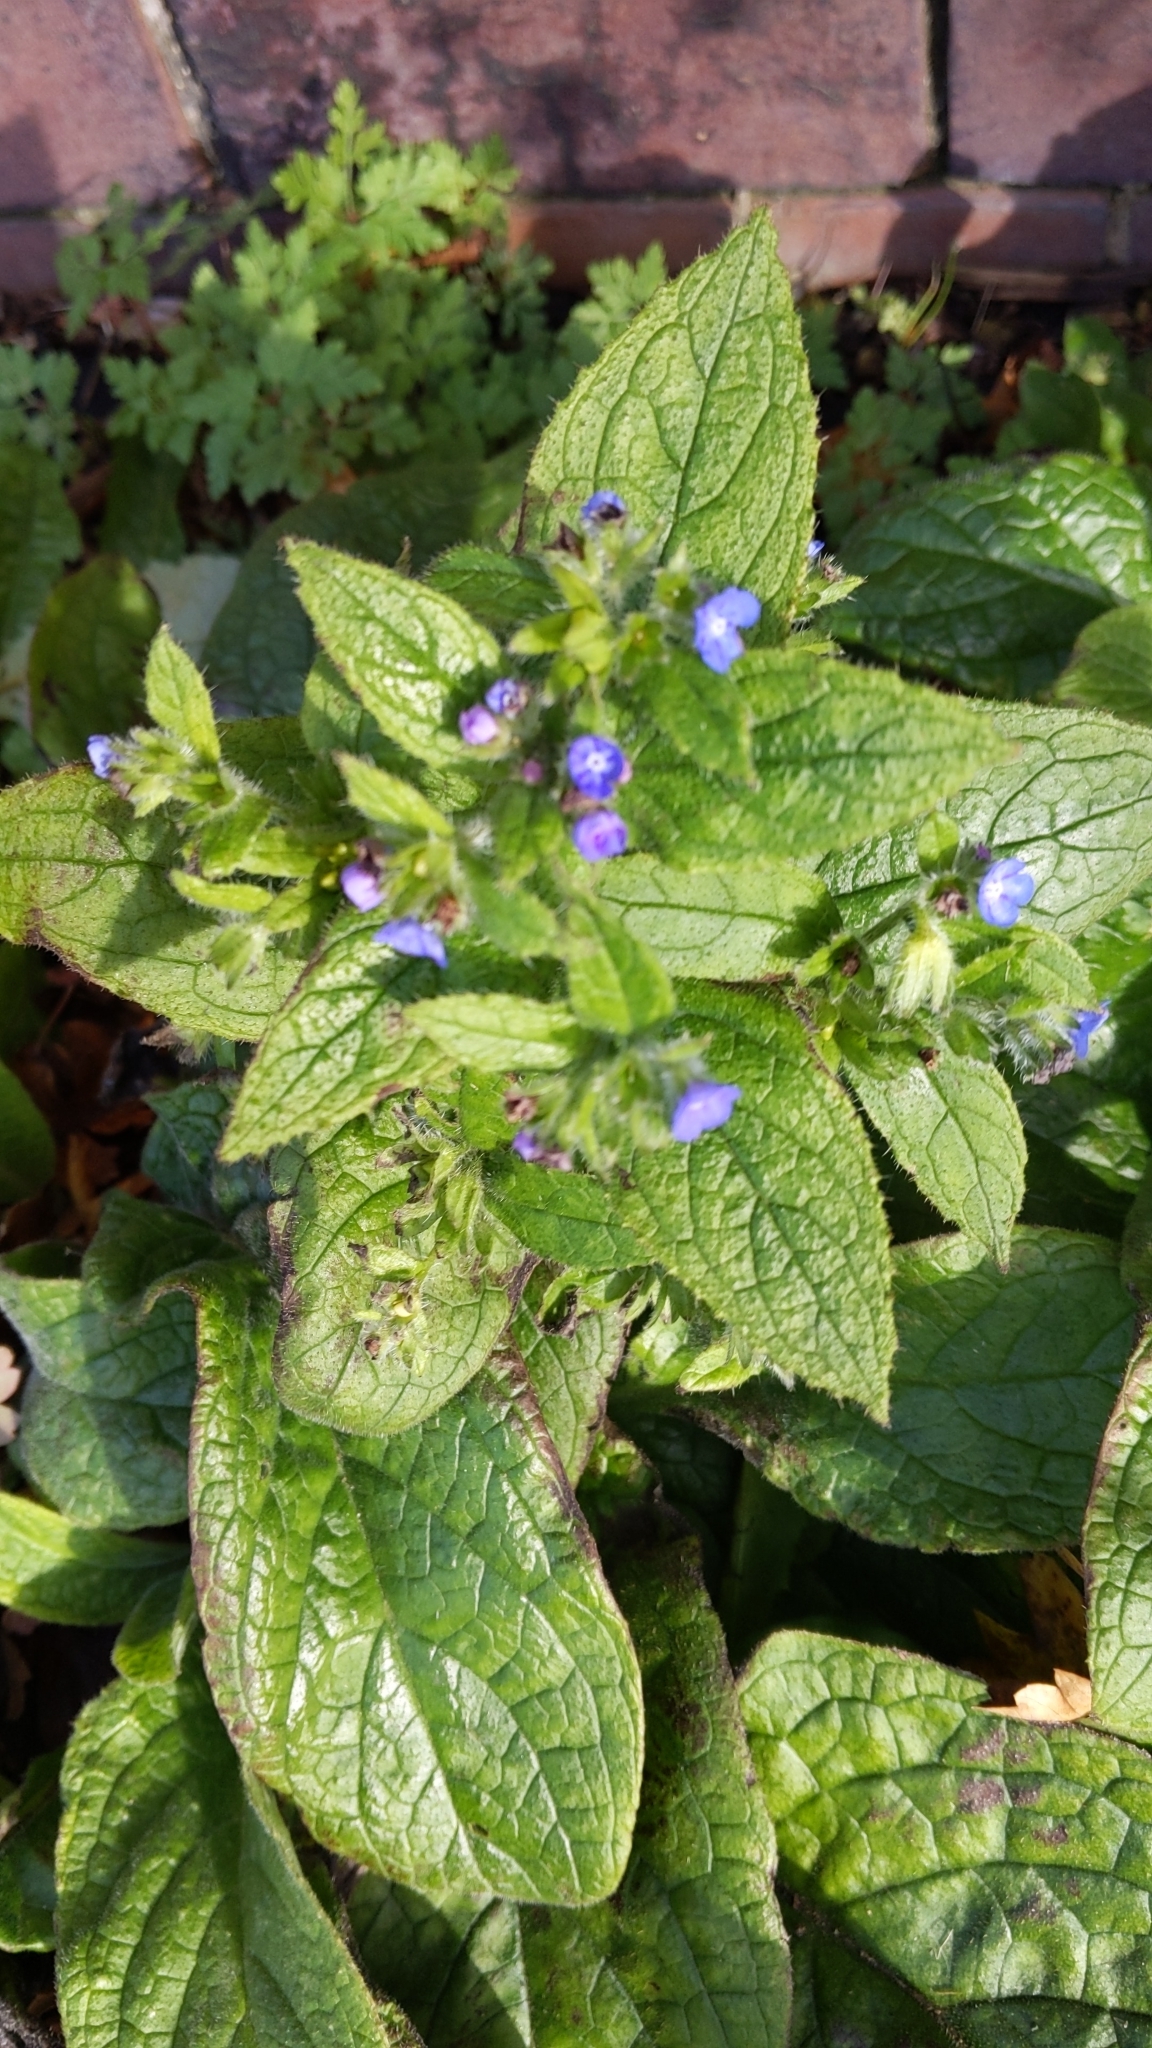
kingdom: Plantae
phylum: Tracheophyta
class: Magnoliopsida
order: Boraginales
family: Boraginaceae
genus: Pentaglottis
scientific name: Pentaglottis sempervirens
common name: Green alkanet
